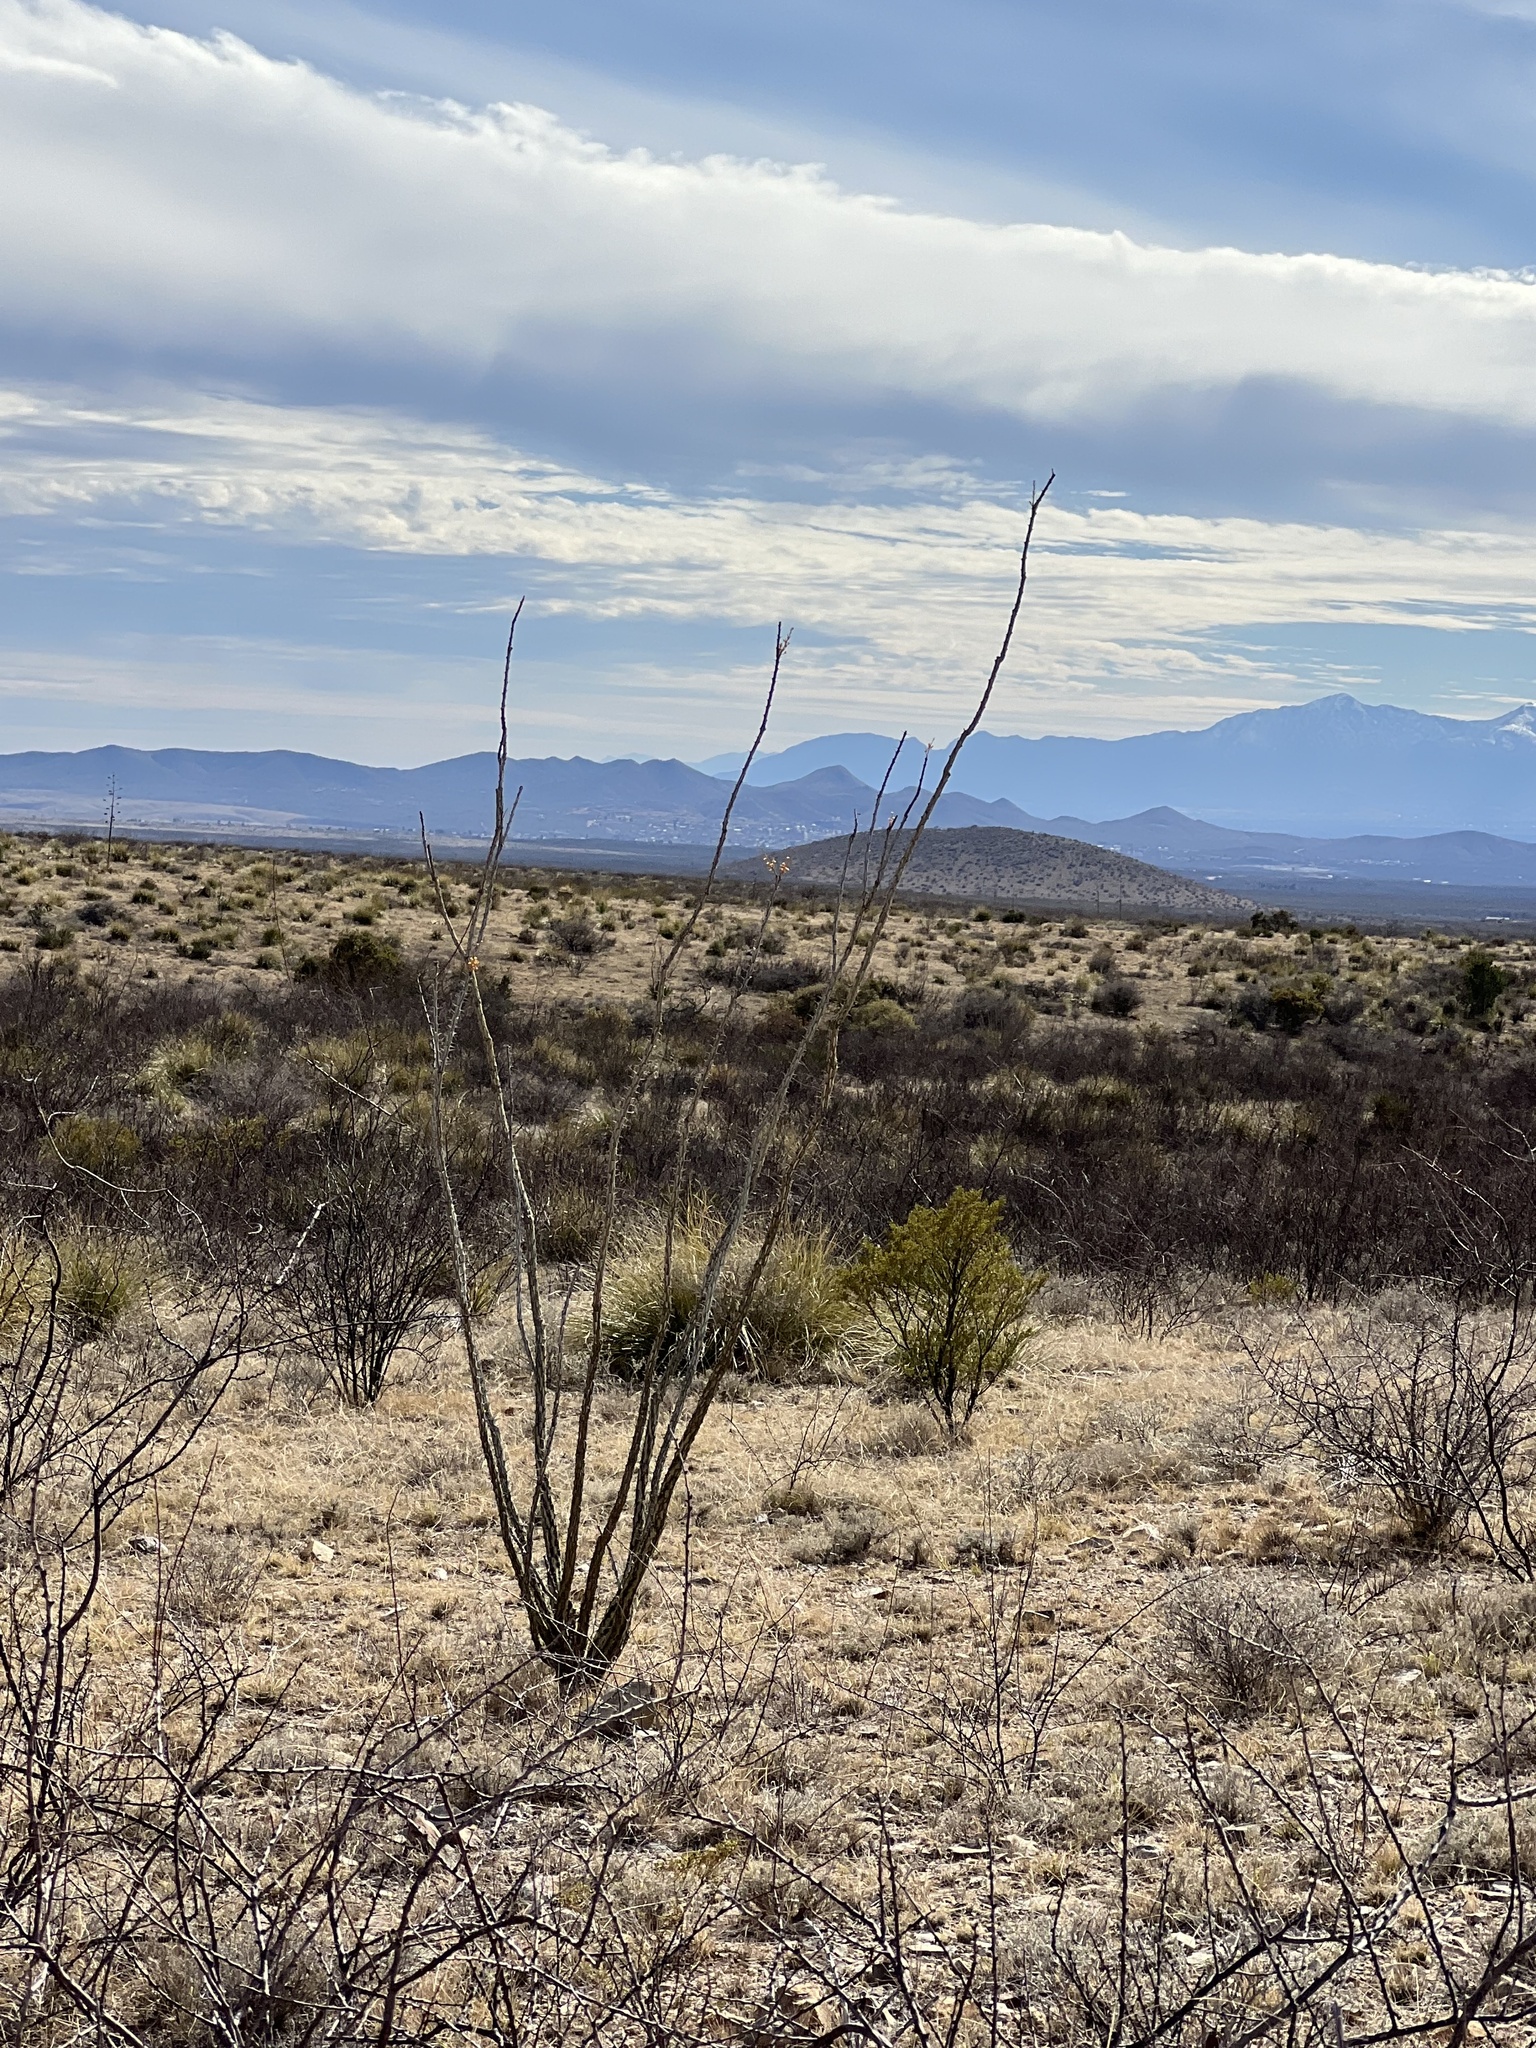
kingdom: Plantae
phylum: Tracheophyta
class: Magnoliopsida
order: Ericales
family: Fouquieriaceae
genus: Fouquieria
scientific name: Fouquieria splendens
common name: Vine-cactus
